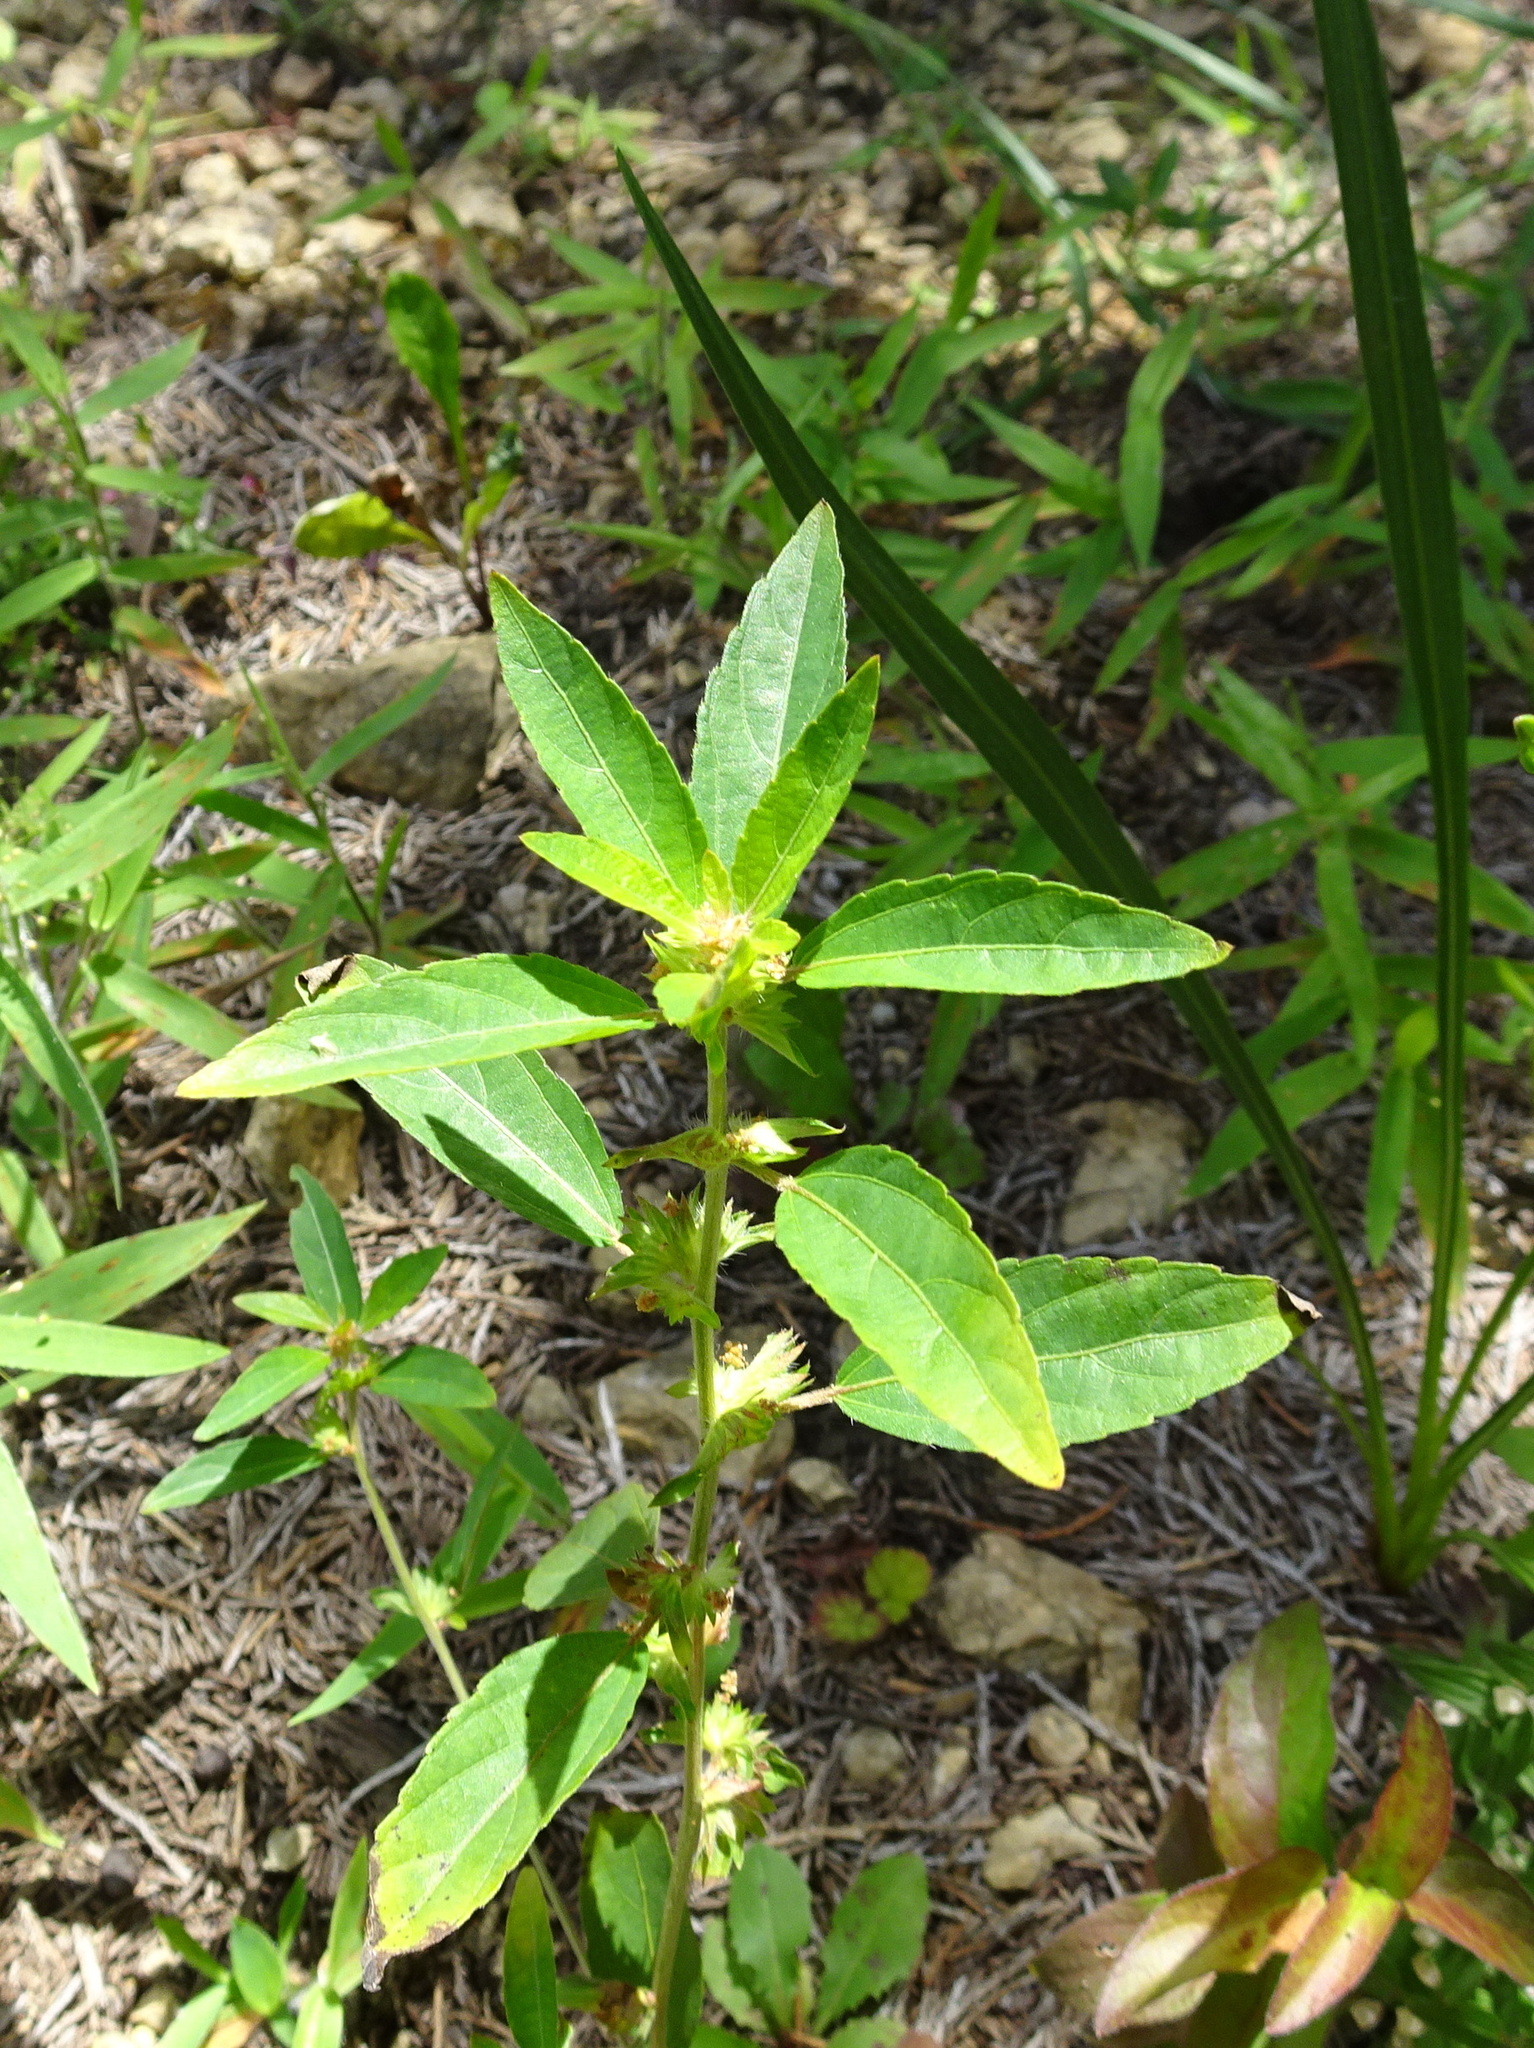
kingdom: Plantae
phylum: Tracheophyta
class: Magnoliopsida
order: Malpighiales
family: Euphorbiaceae
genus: Acalypha
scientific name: Acalypha virginica
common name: Virginia copperleaf
